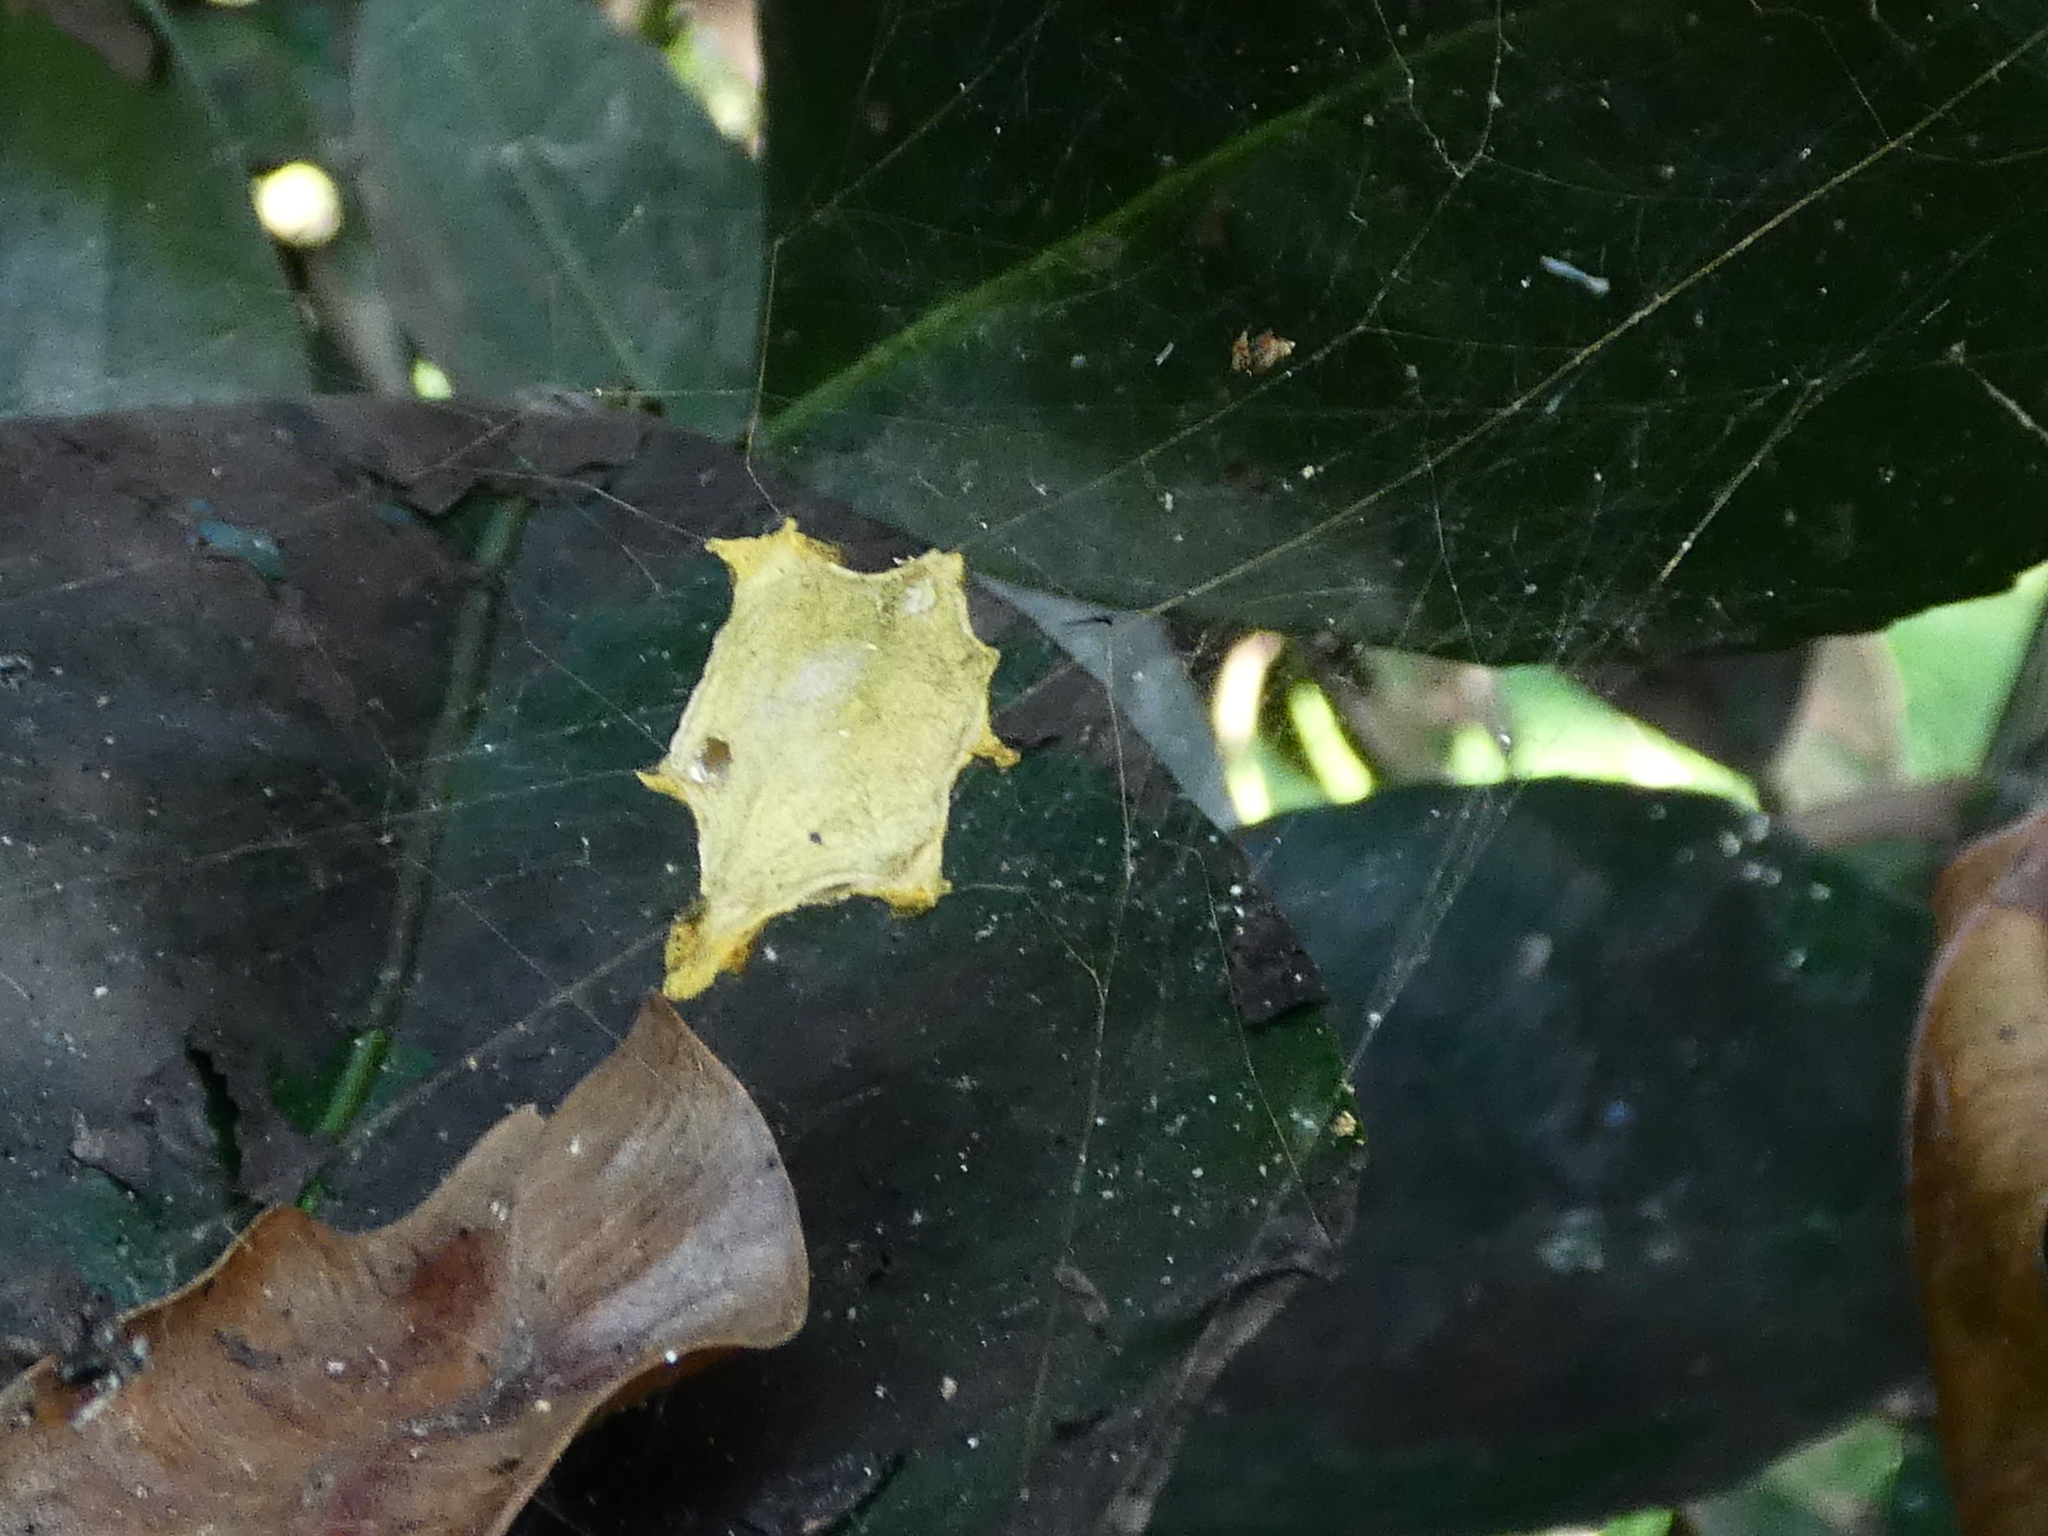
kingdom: Animalia
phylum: Arthropoda
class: Arachnida
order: Araneae
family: Araneidae
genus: Argiope
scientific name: Argiope argentata
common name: Orb weavers
